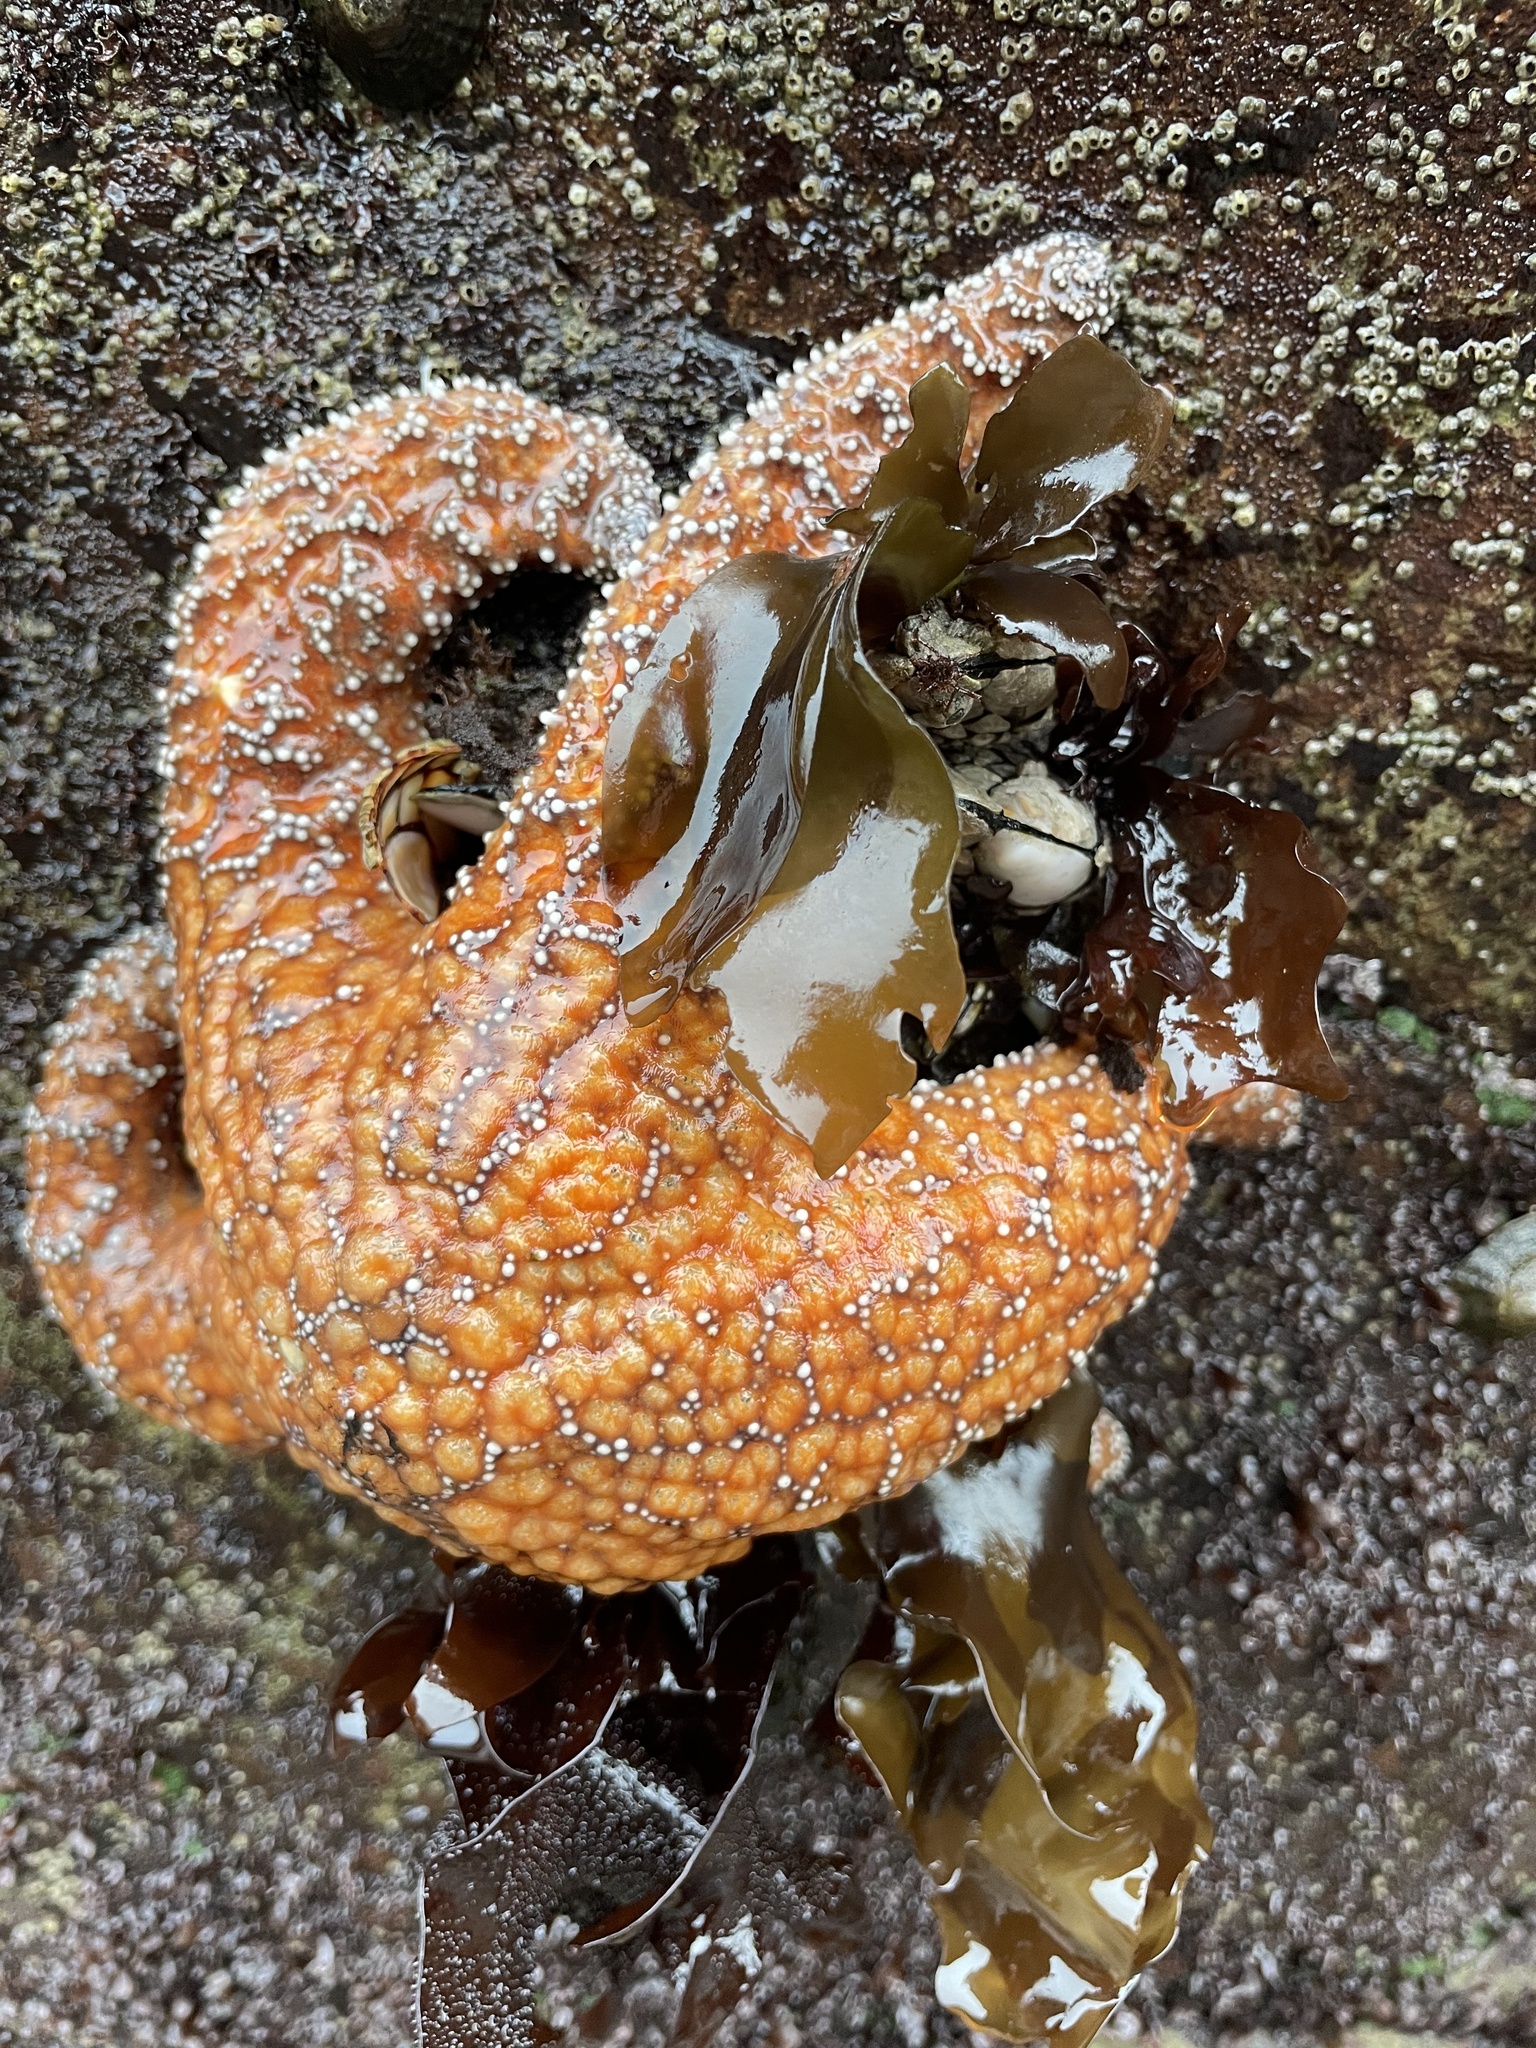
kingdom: Animalia
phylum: Echinodermata
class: Asteroidea
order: Forcipulatida
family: Asteriidae
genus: Pisaster
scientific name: Pisaster ochraceus
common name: Ochre stars
